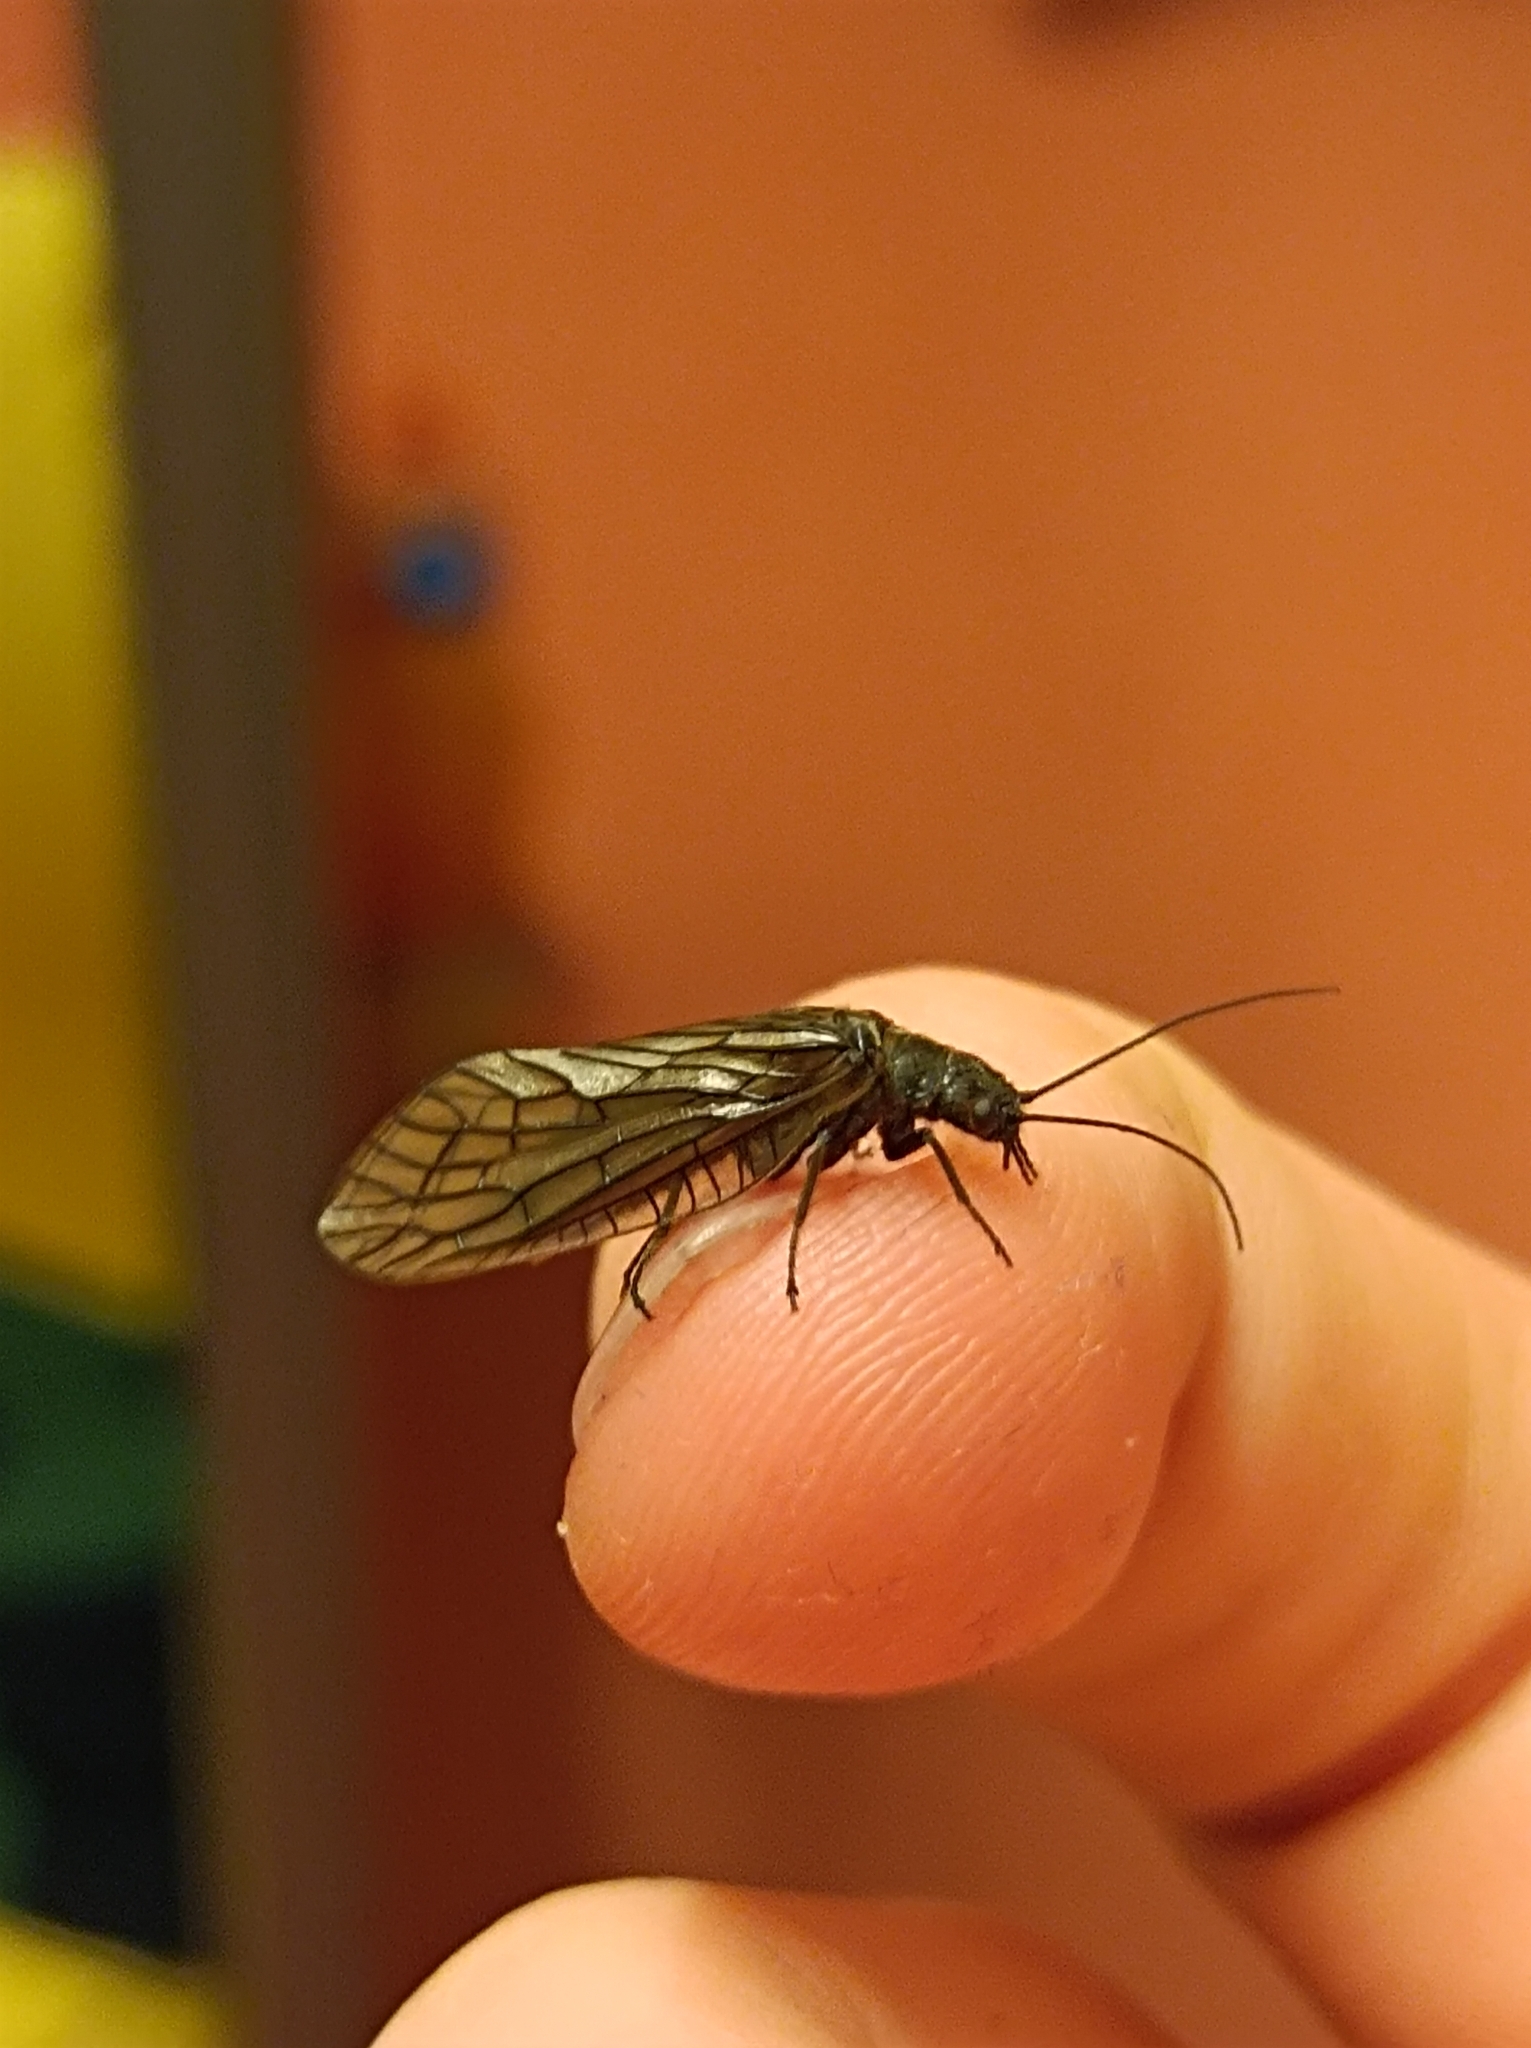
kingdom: Animalia
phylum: Arthropoda
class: Insecta
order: Megaloptera
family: Sialidae
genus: Sialis
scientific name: Sialis
